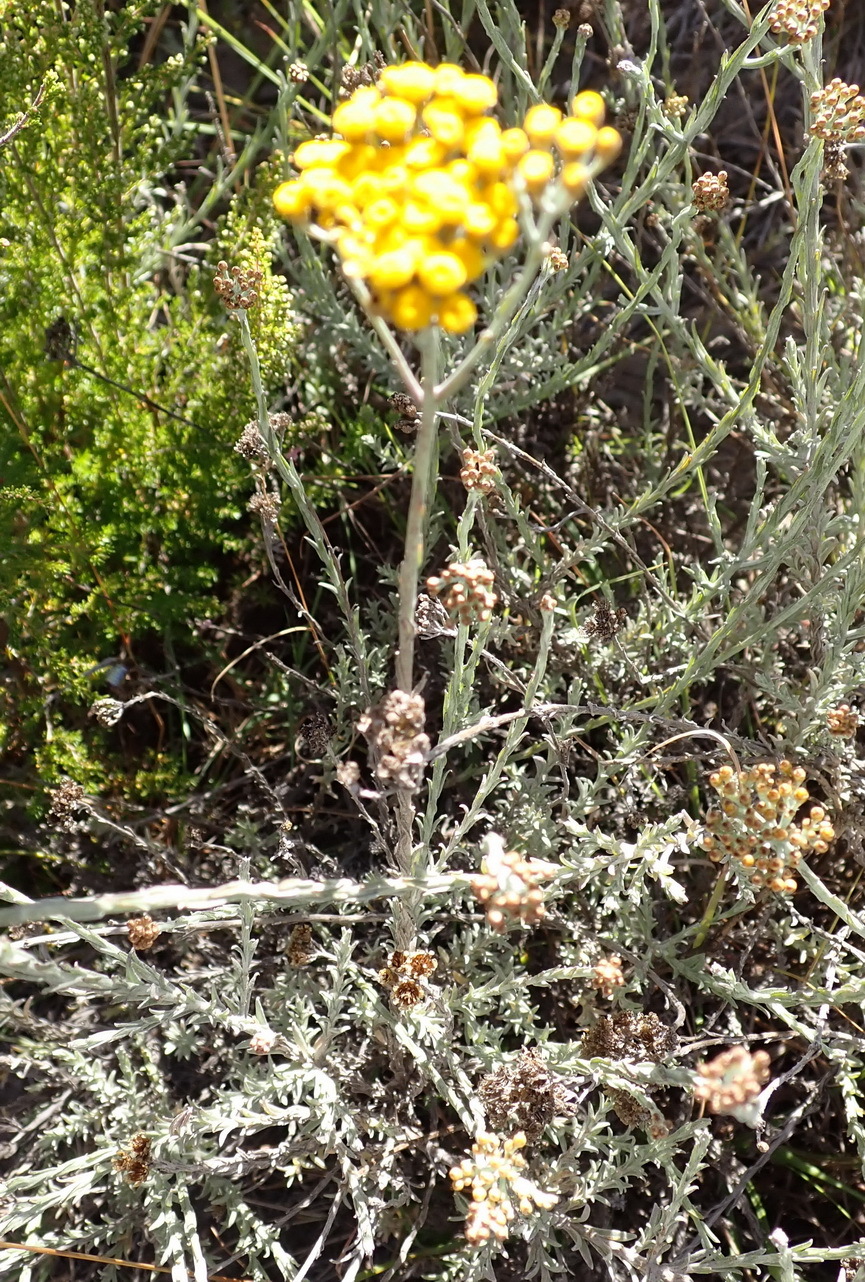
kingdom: Plantae
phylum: Tracheophyta
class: Magnoliopsida
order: Asterales
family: Asteraceae
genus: Helichrysum
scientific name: Helichrysum anomalum
